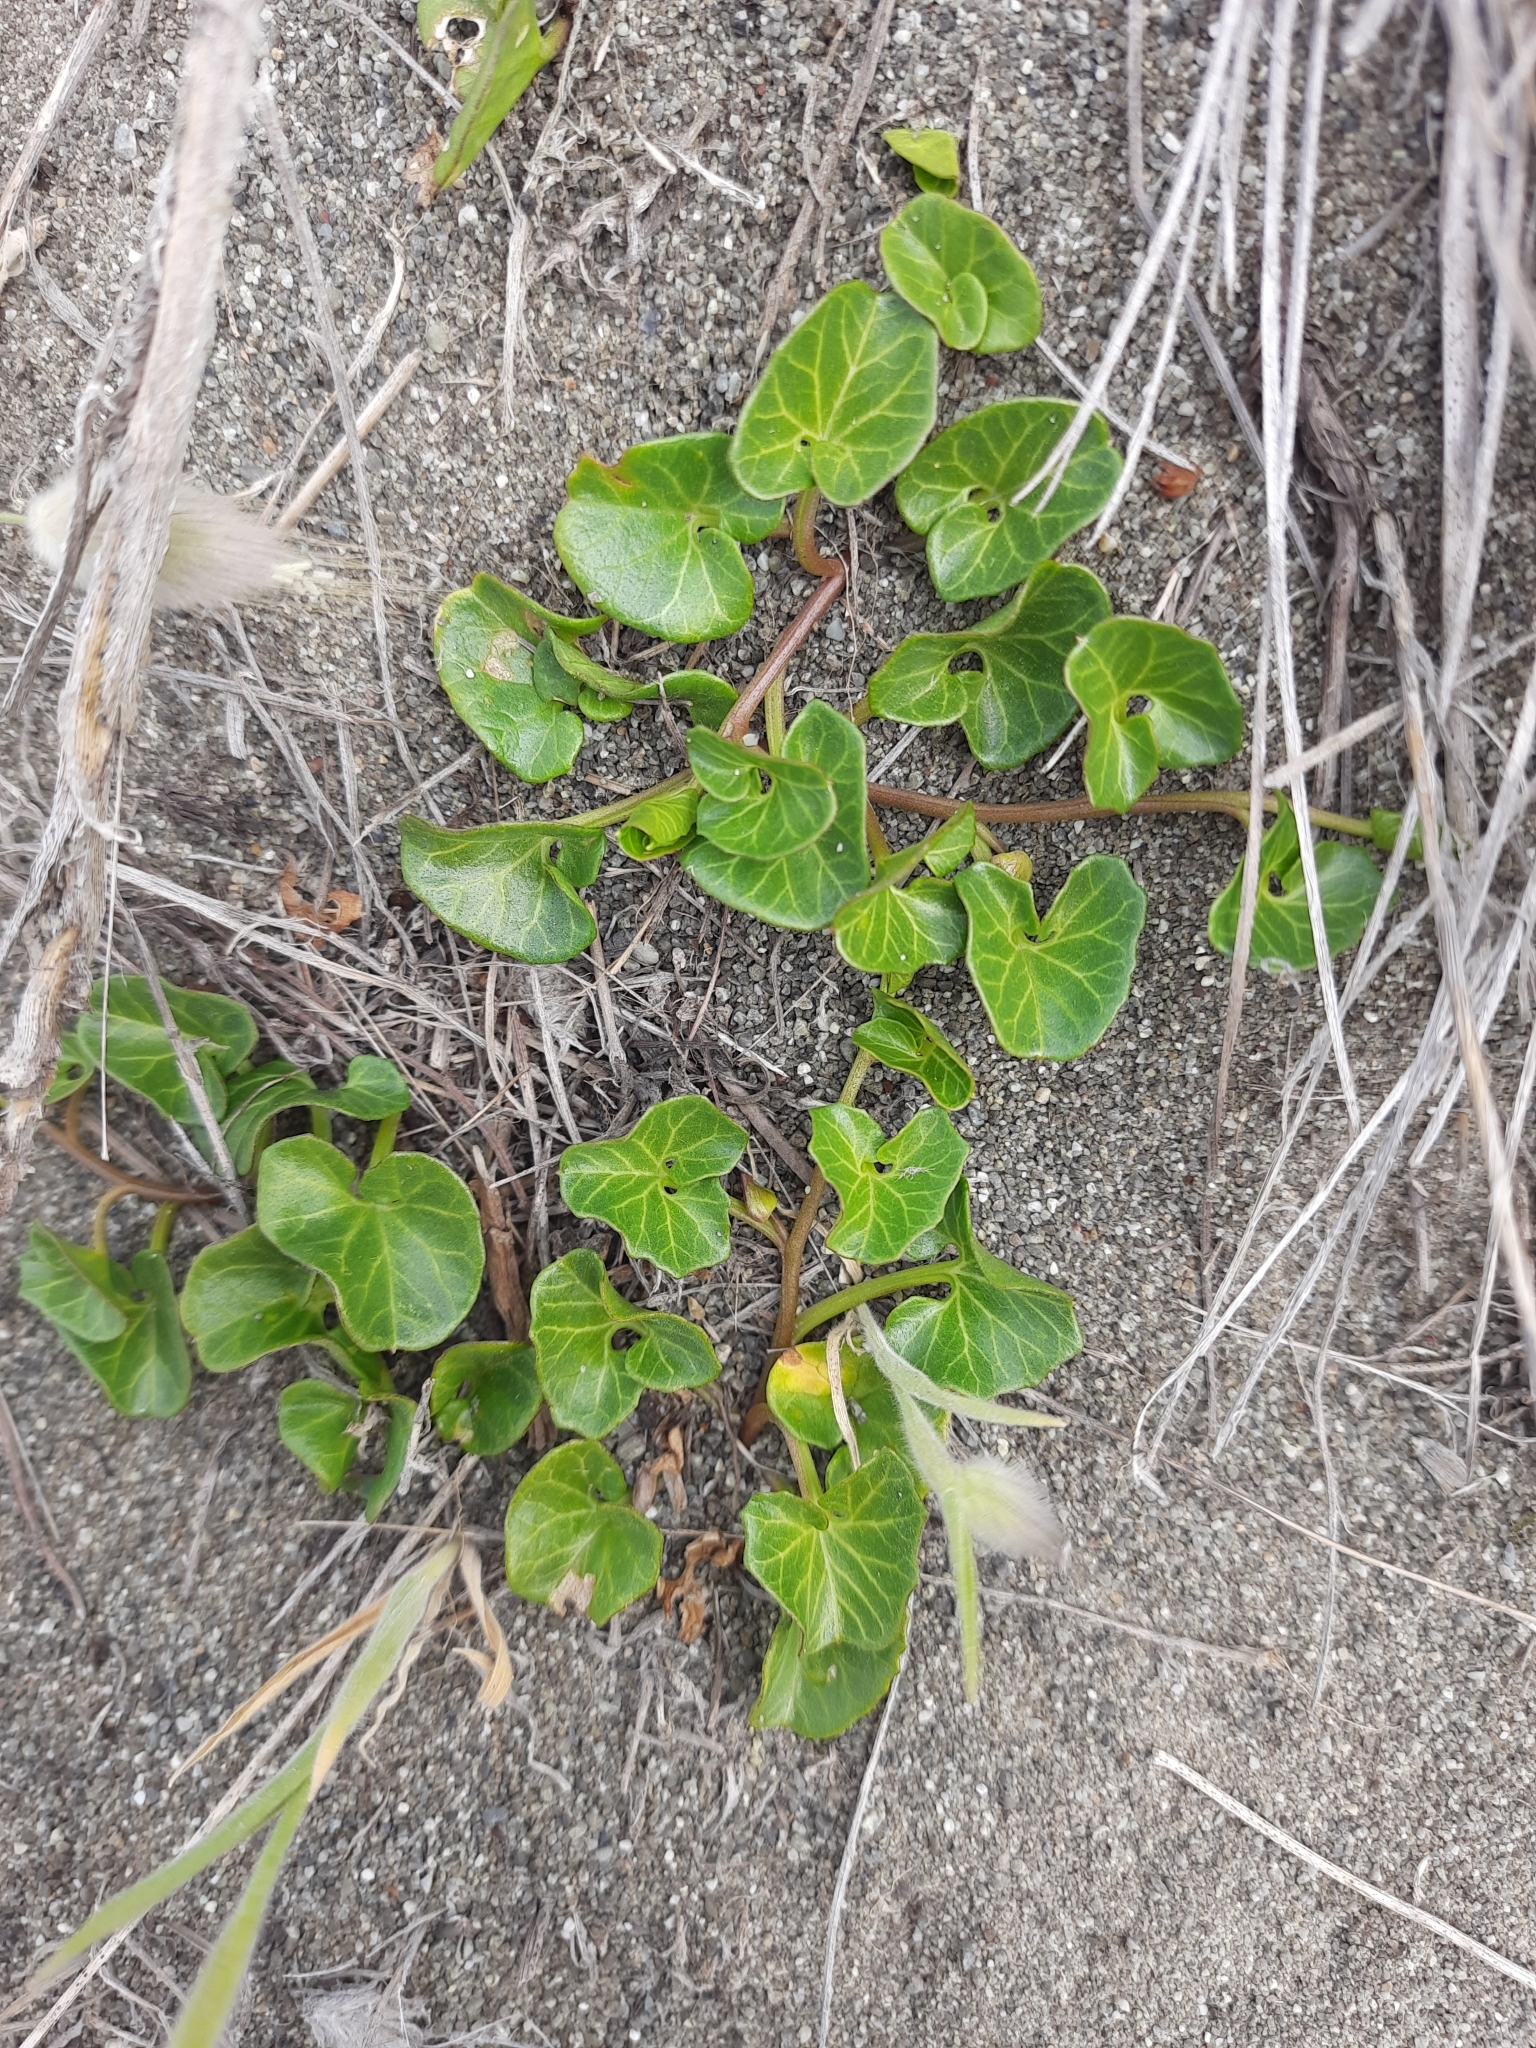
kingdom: Plantae
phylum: Tracheophyta
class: Magnoliopsida
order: Solanales
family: Convolvulaceae
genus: Calystegia
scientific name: Calystegia soldanella
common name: Sea bindweed
